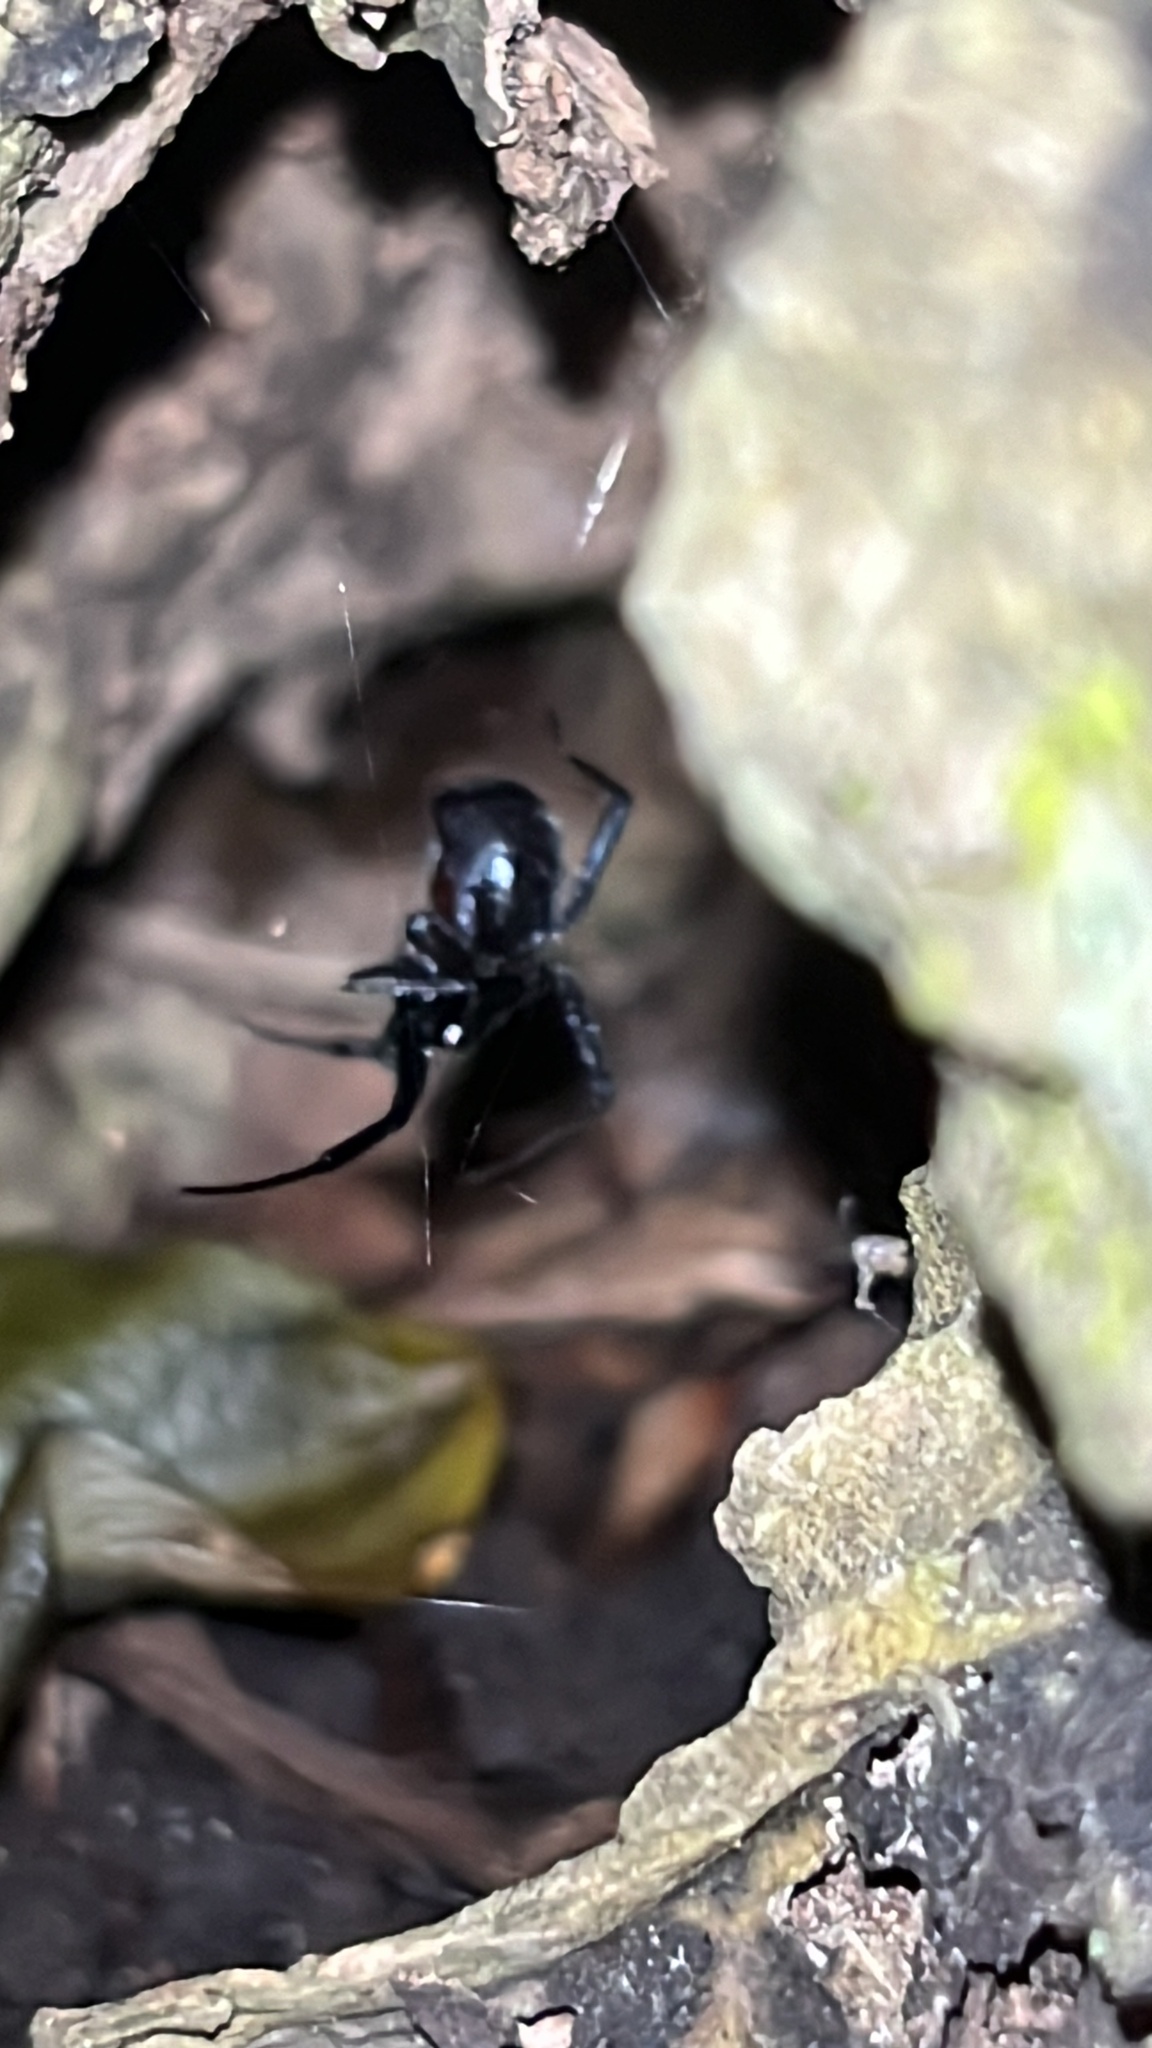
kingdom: Animalia
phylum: Arthropoda
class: Arachnida
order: Araneae
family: Theridiidae
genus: Steatoda
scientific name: Steatoda capensis
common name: Cobweb weaver
